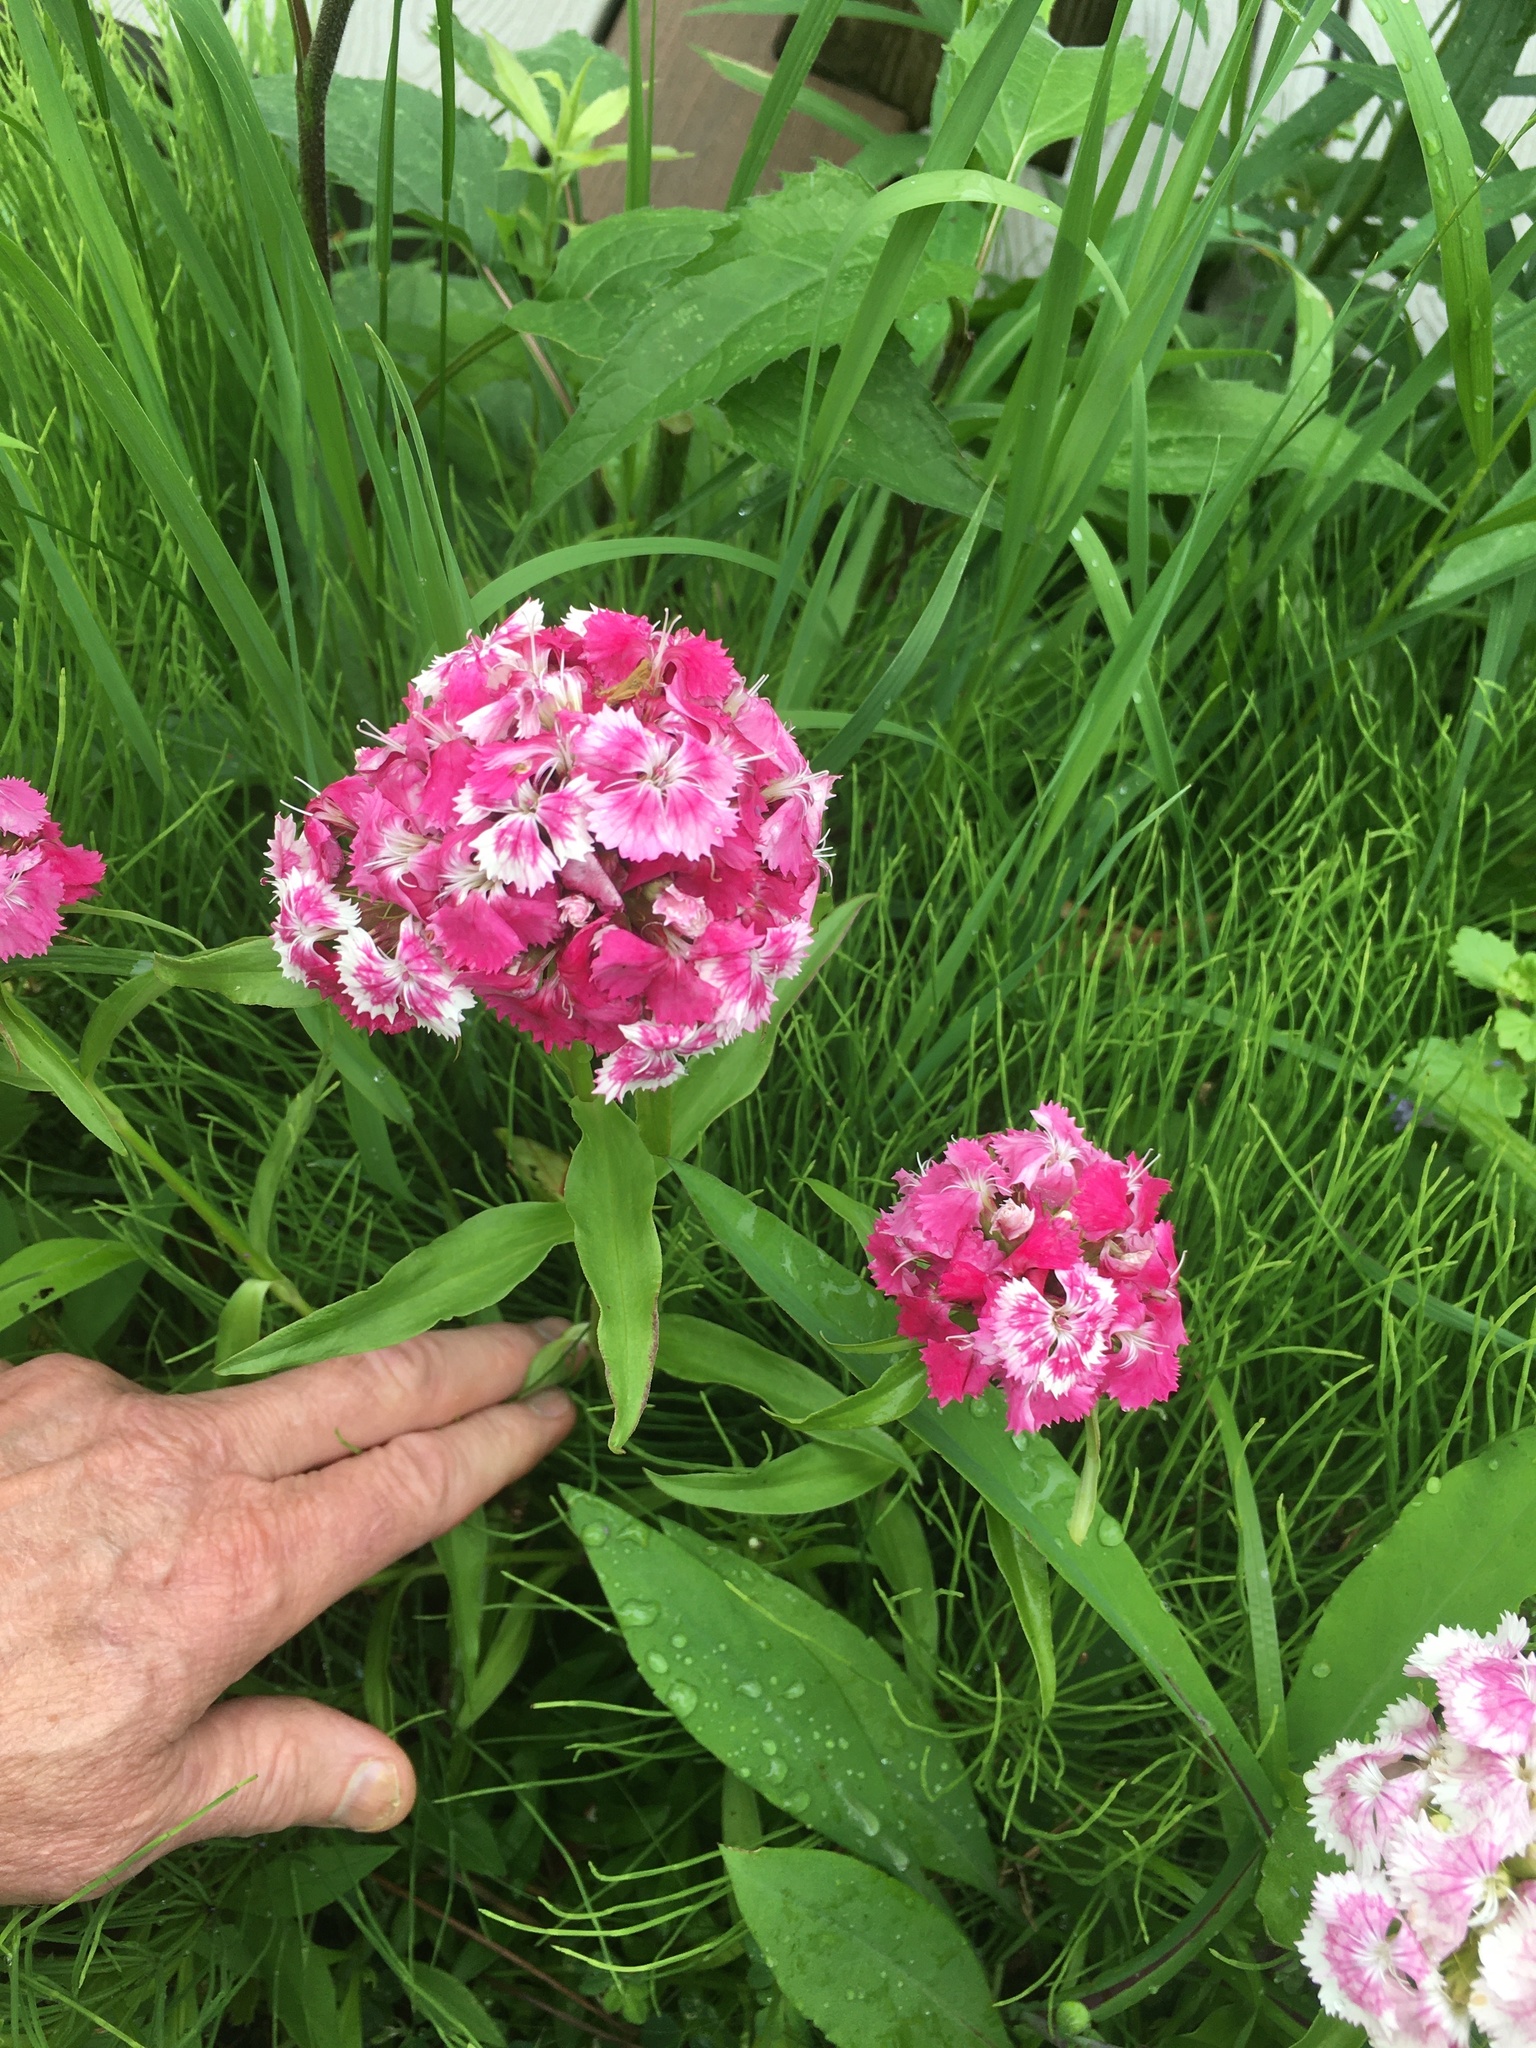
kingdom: Plantae
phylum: Tracheophyta
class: Magnoliopsida
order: Caryophyllales
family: Caryophyllaceae
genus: Dianthus
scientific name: Dianthus barbatus
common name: Sweet-william
